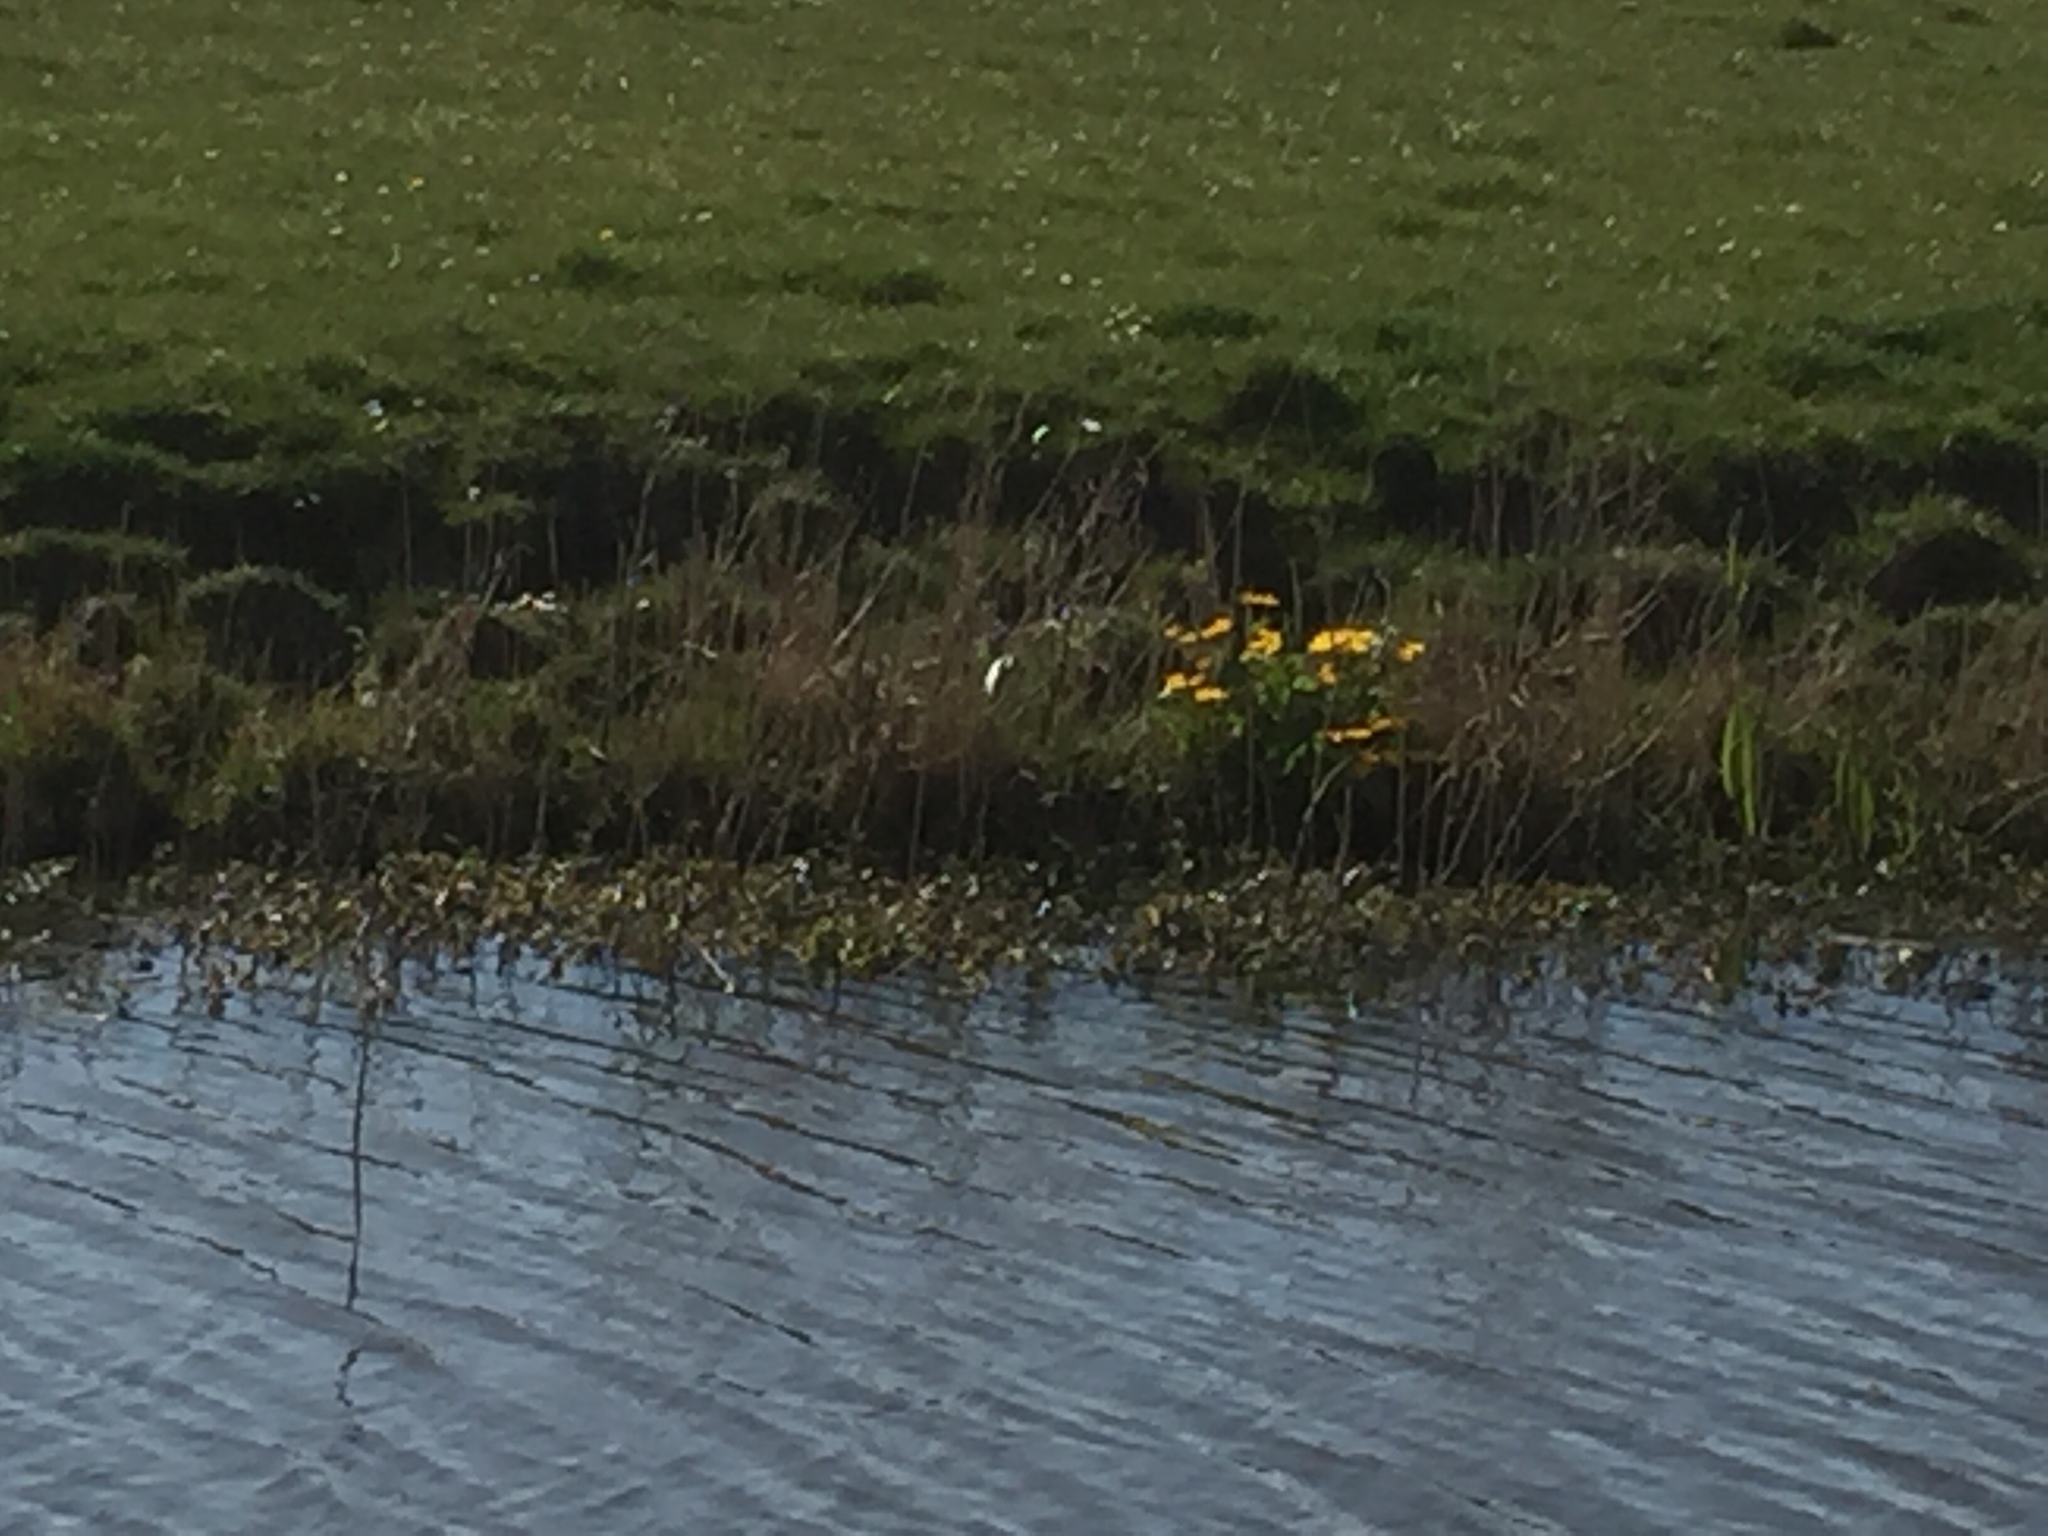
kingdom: Plantae
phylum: Tracheophyta
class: Magnoliopsida
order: Ranunculales
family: Ranunculaceae
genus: Caltha
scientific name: Caltha palustris
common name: Marsh marigold
